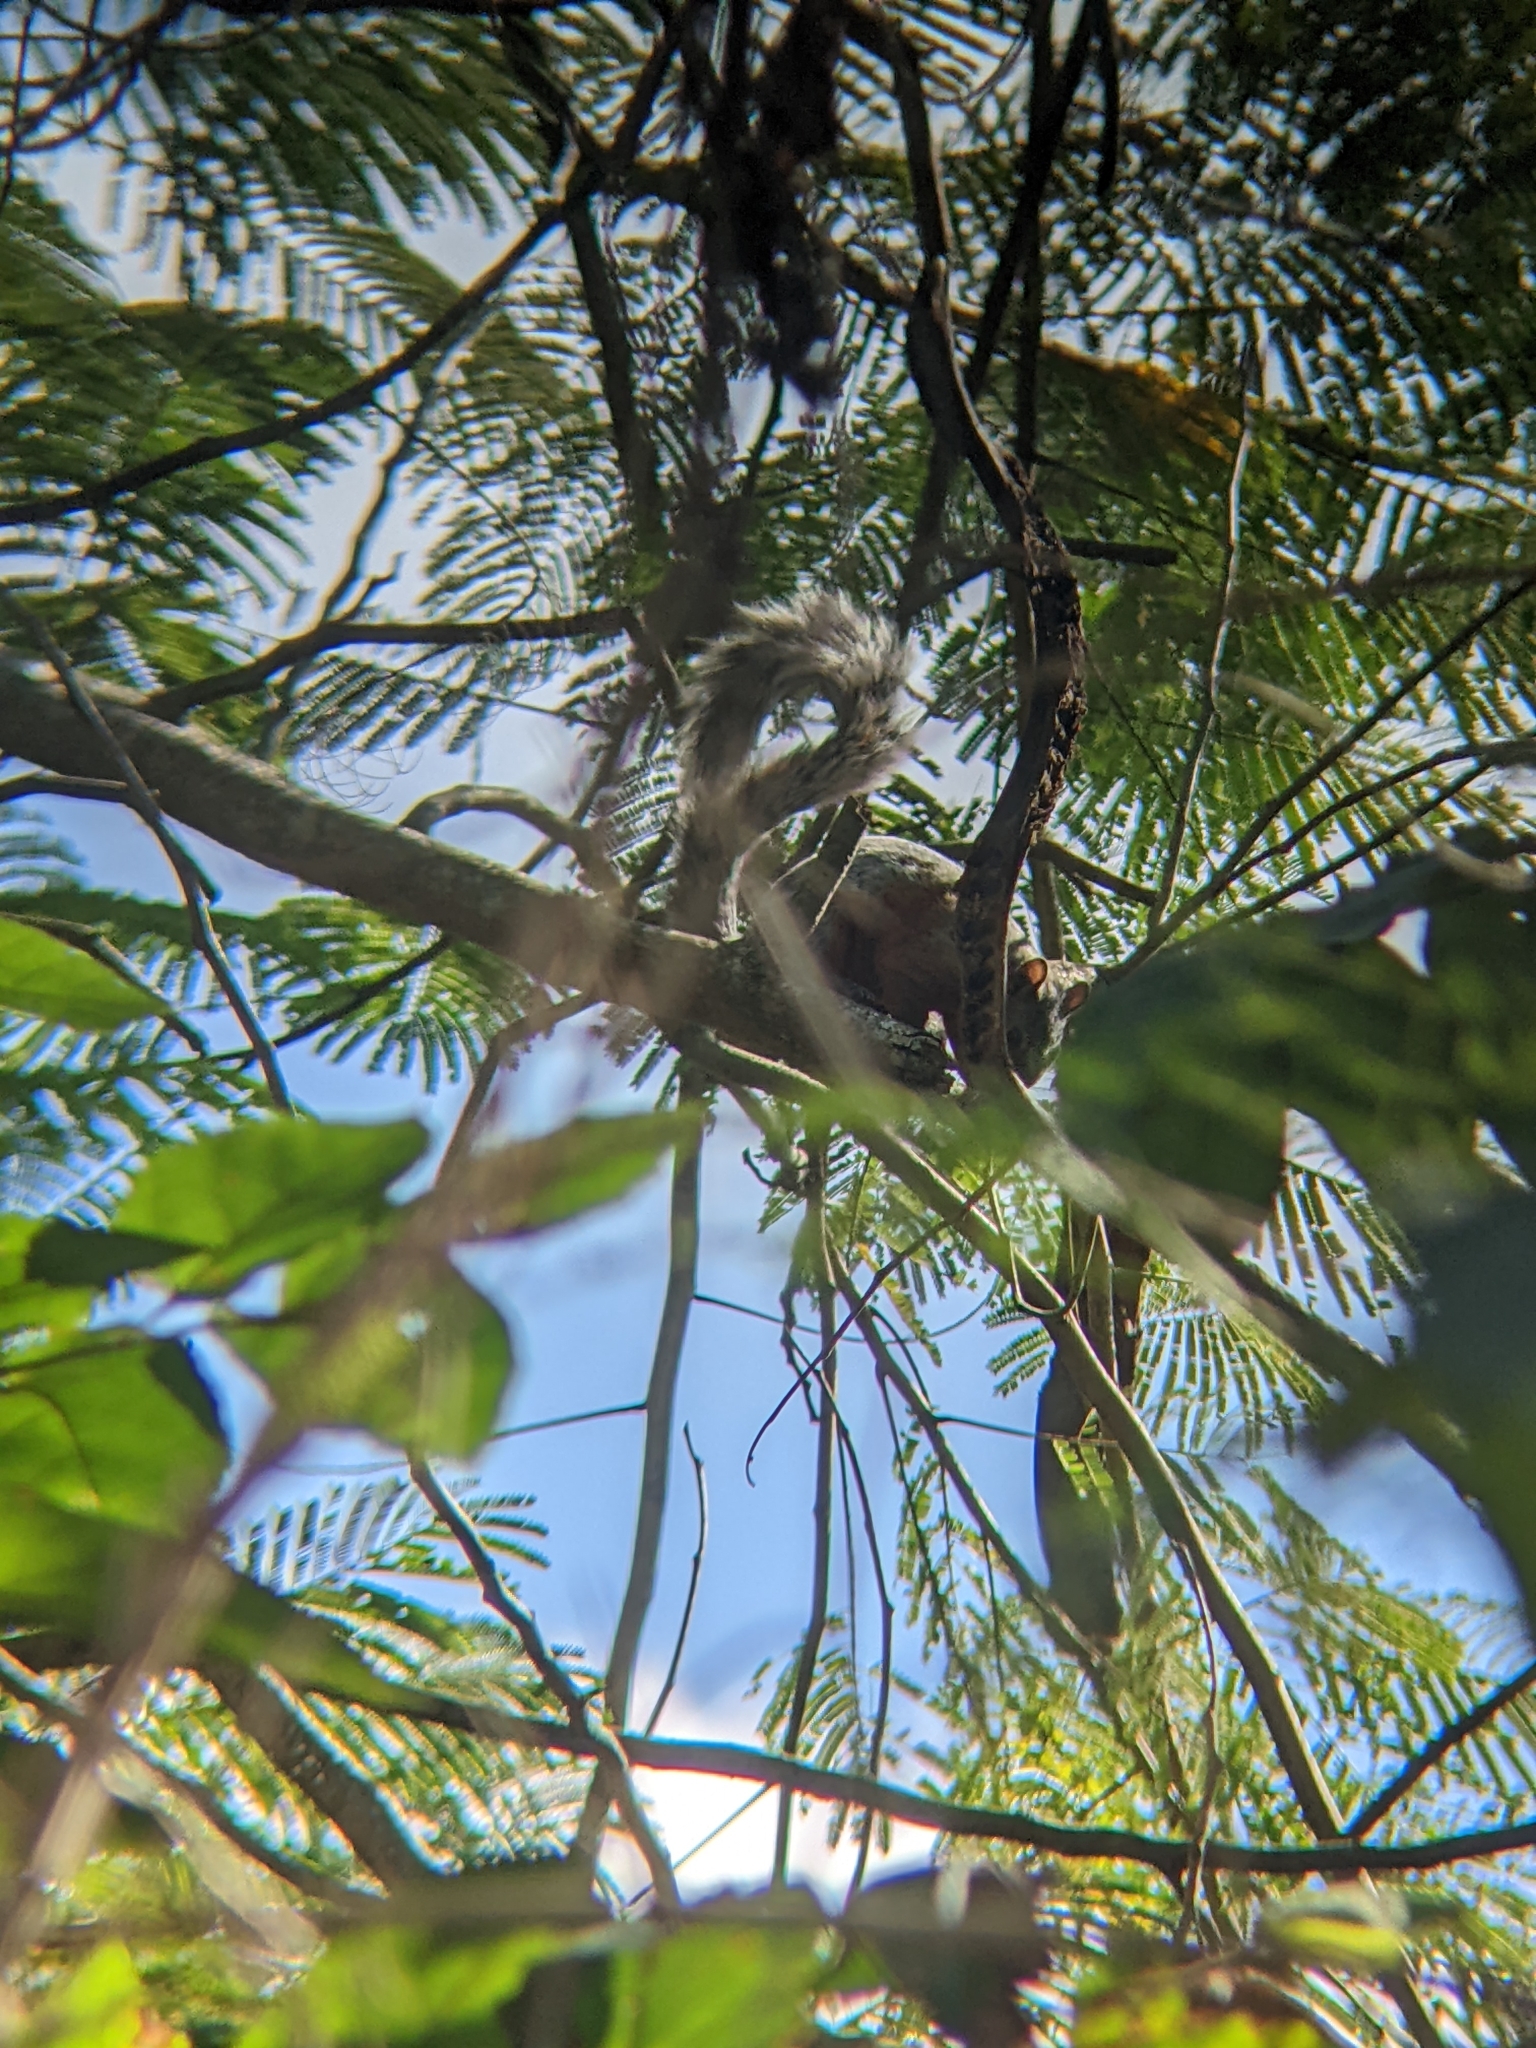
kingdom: Animalia
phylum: Chordata
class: Mammalia
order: Rodentia
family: Sciuridae
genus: Sciurus
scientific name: Sciurus aureogaster
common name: Red-bellied squirrel
